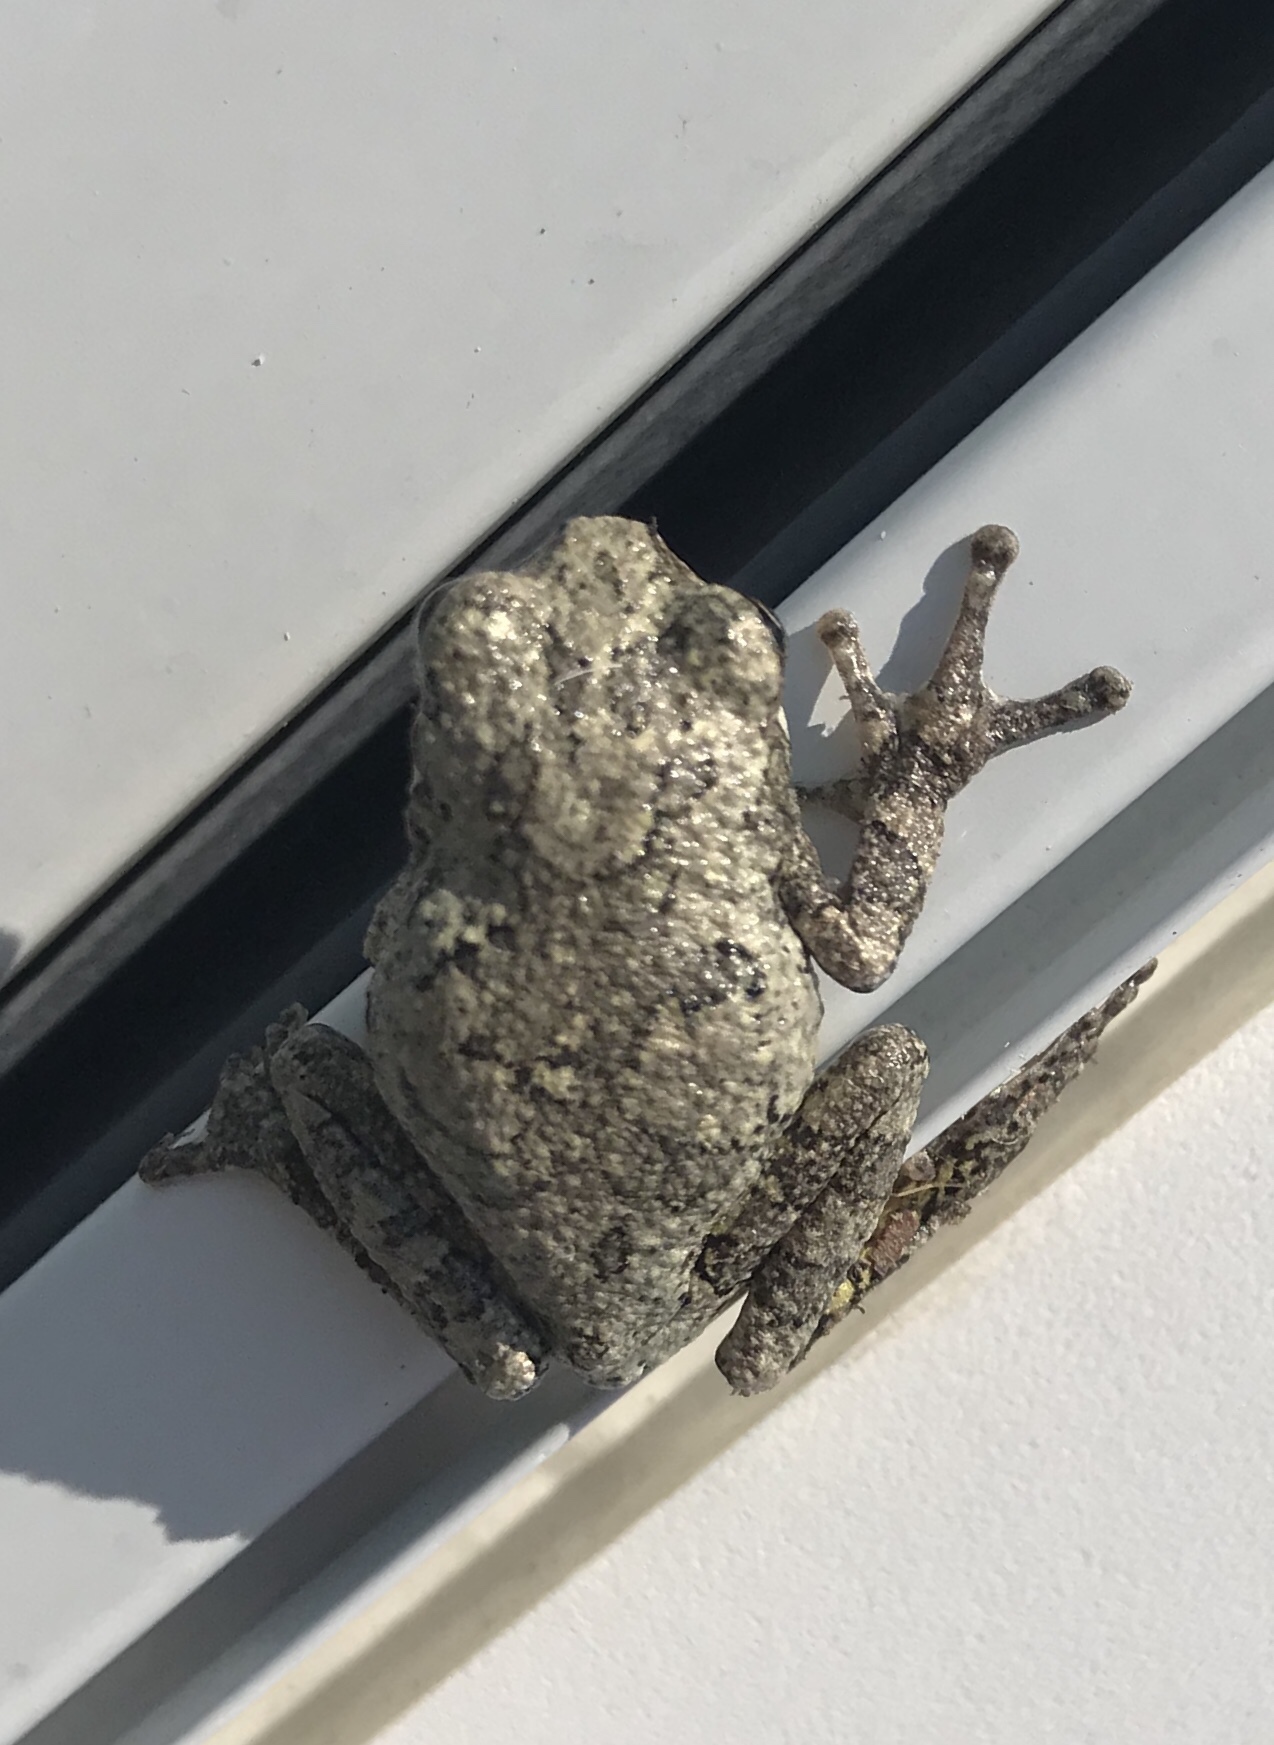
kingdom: Animalia
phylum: Chordata
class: Amphibia
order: Anura
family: Hylidae
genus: Hyla
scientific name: Hyla
